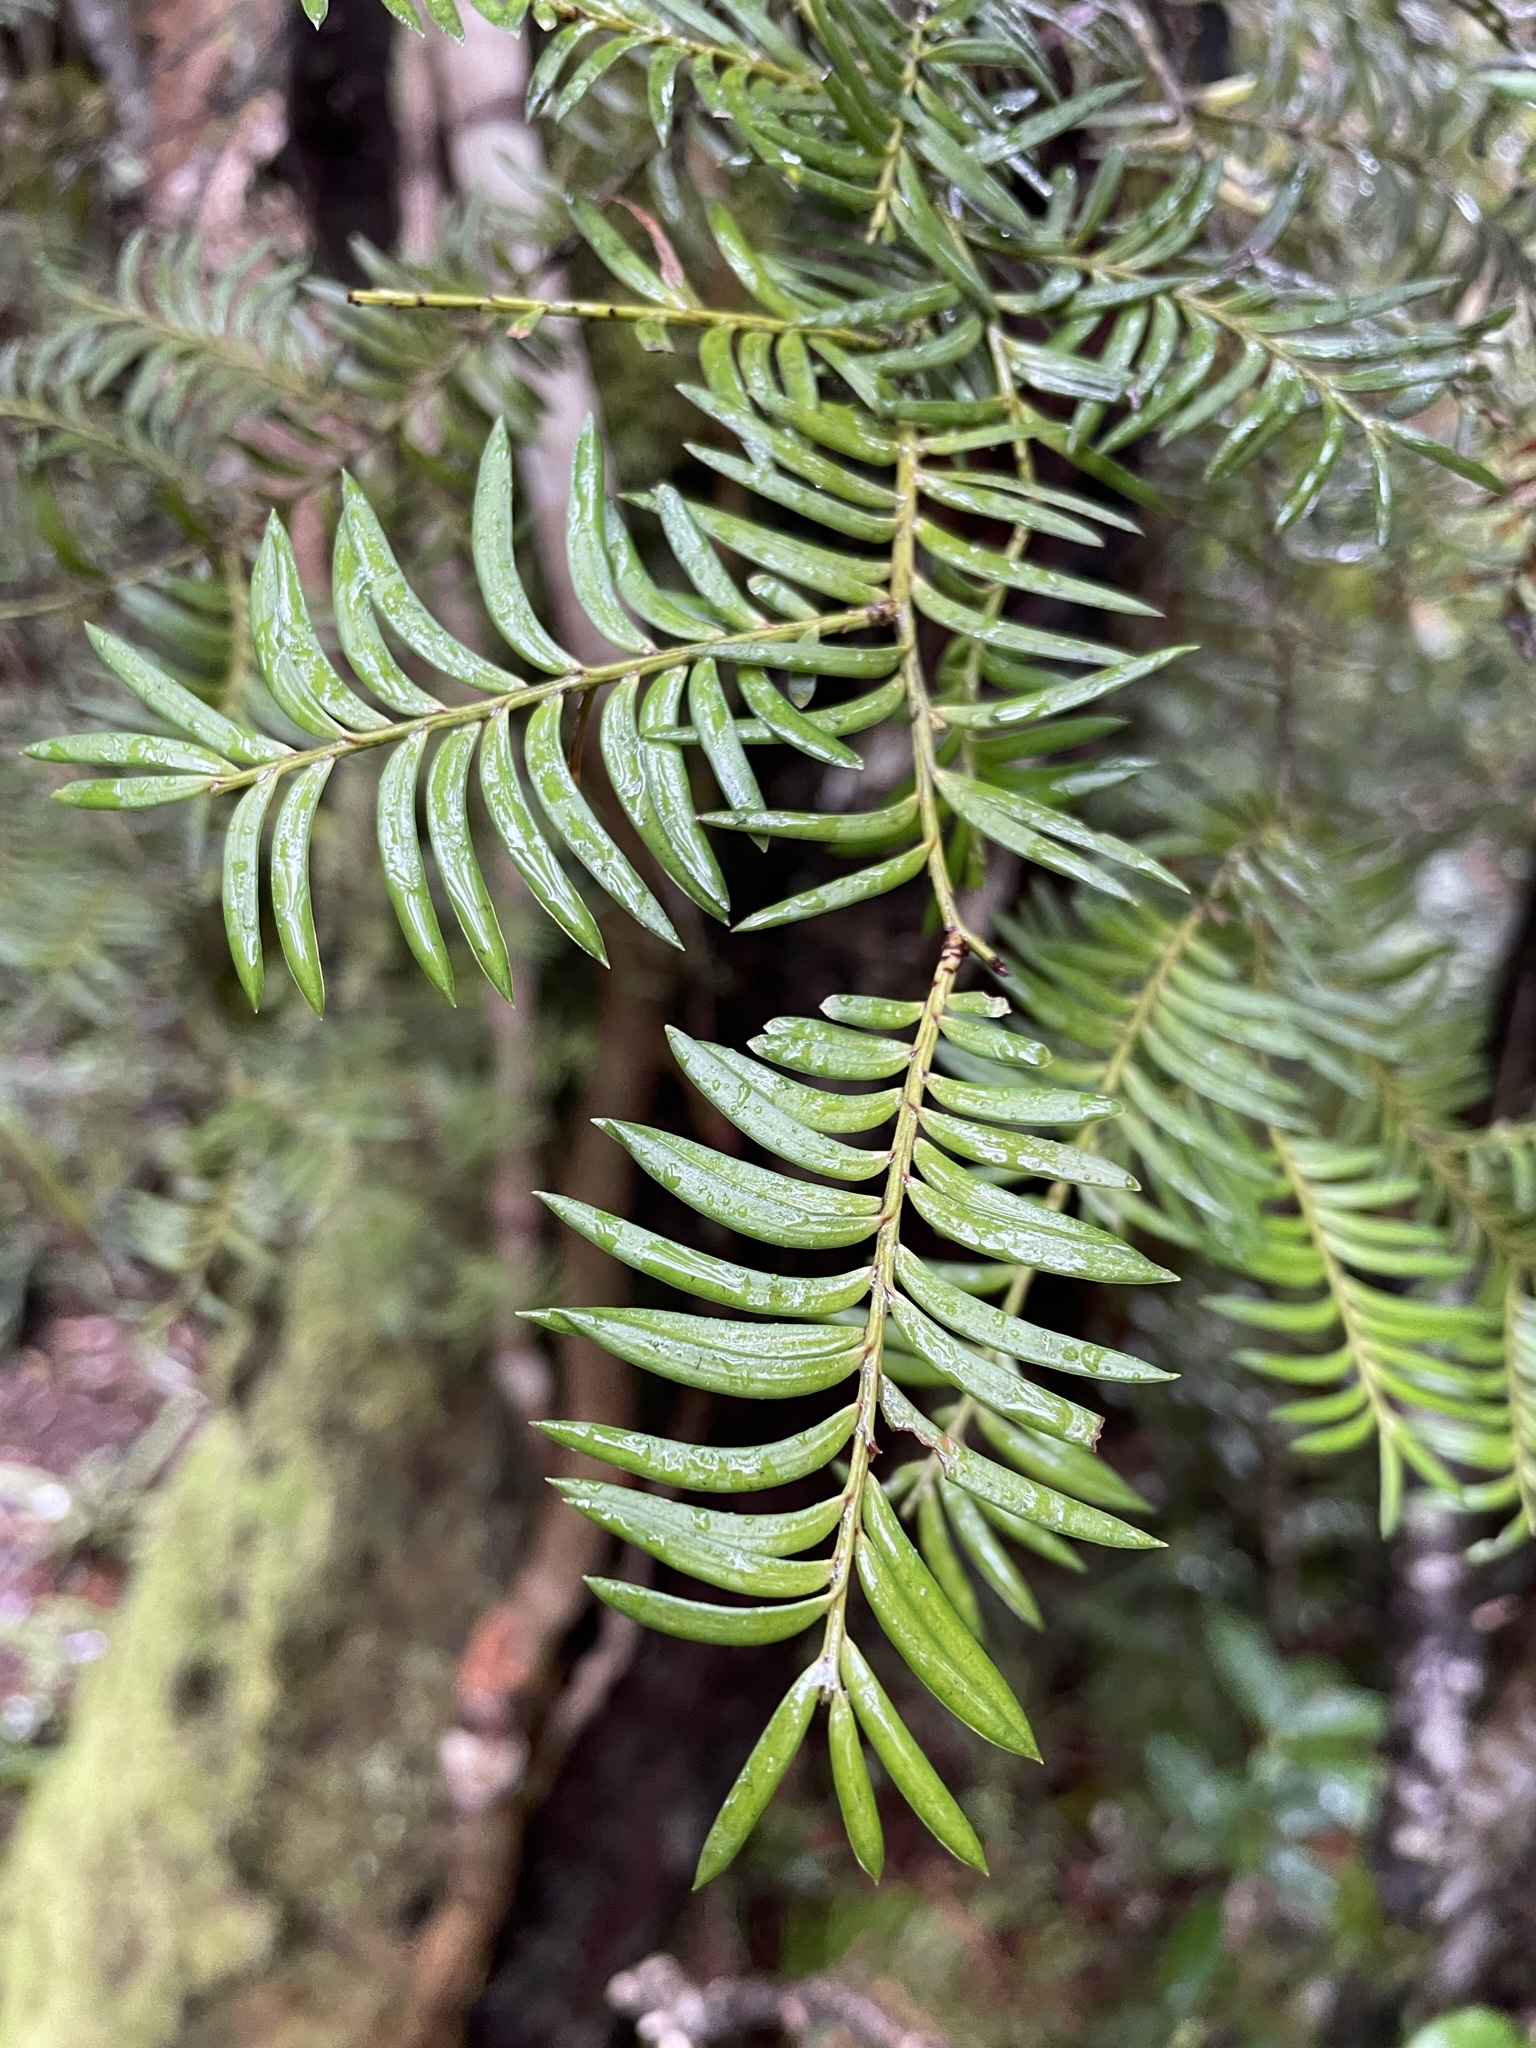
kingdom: Plantae
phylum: Tracheophyta
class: Pinopsida
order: Pinales
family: Podocarpaceae
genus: Prumnopitys
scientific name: Prumnopitys ferruginea
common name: Brown pine
